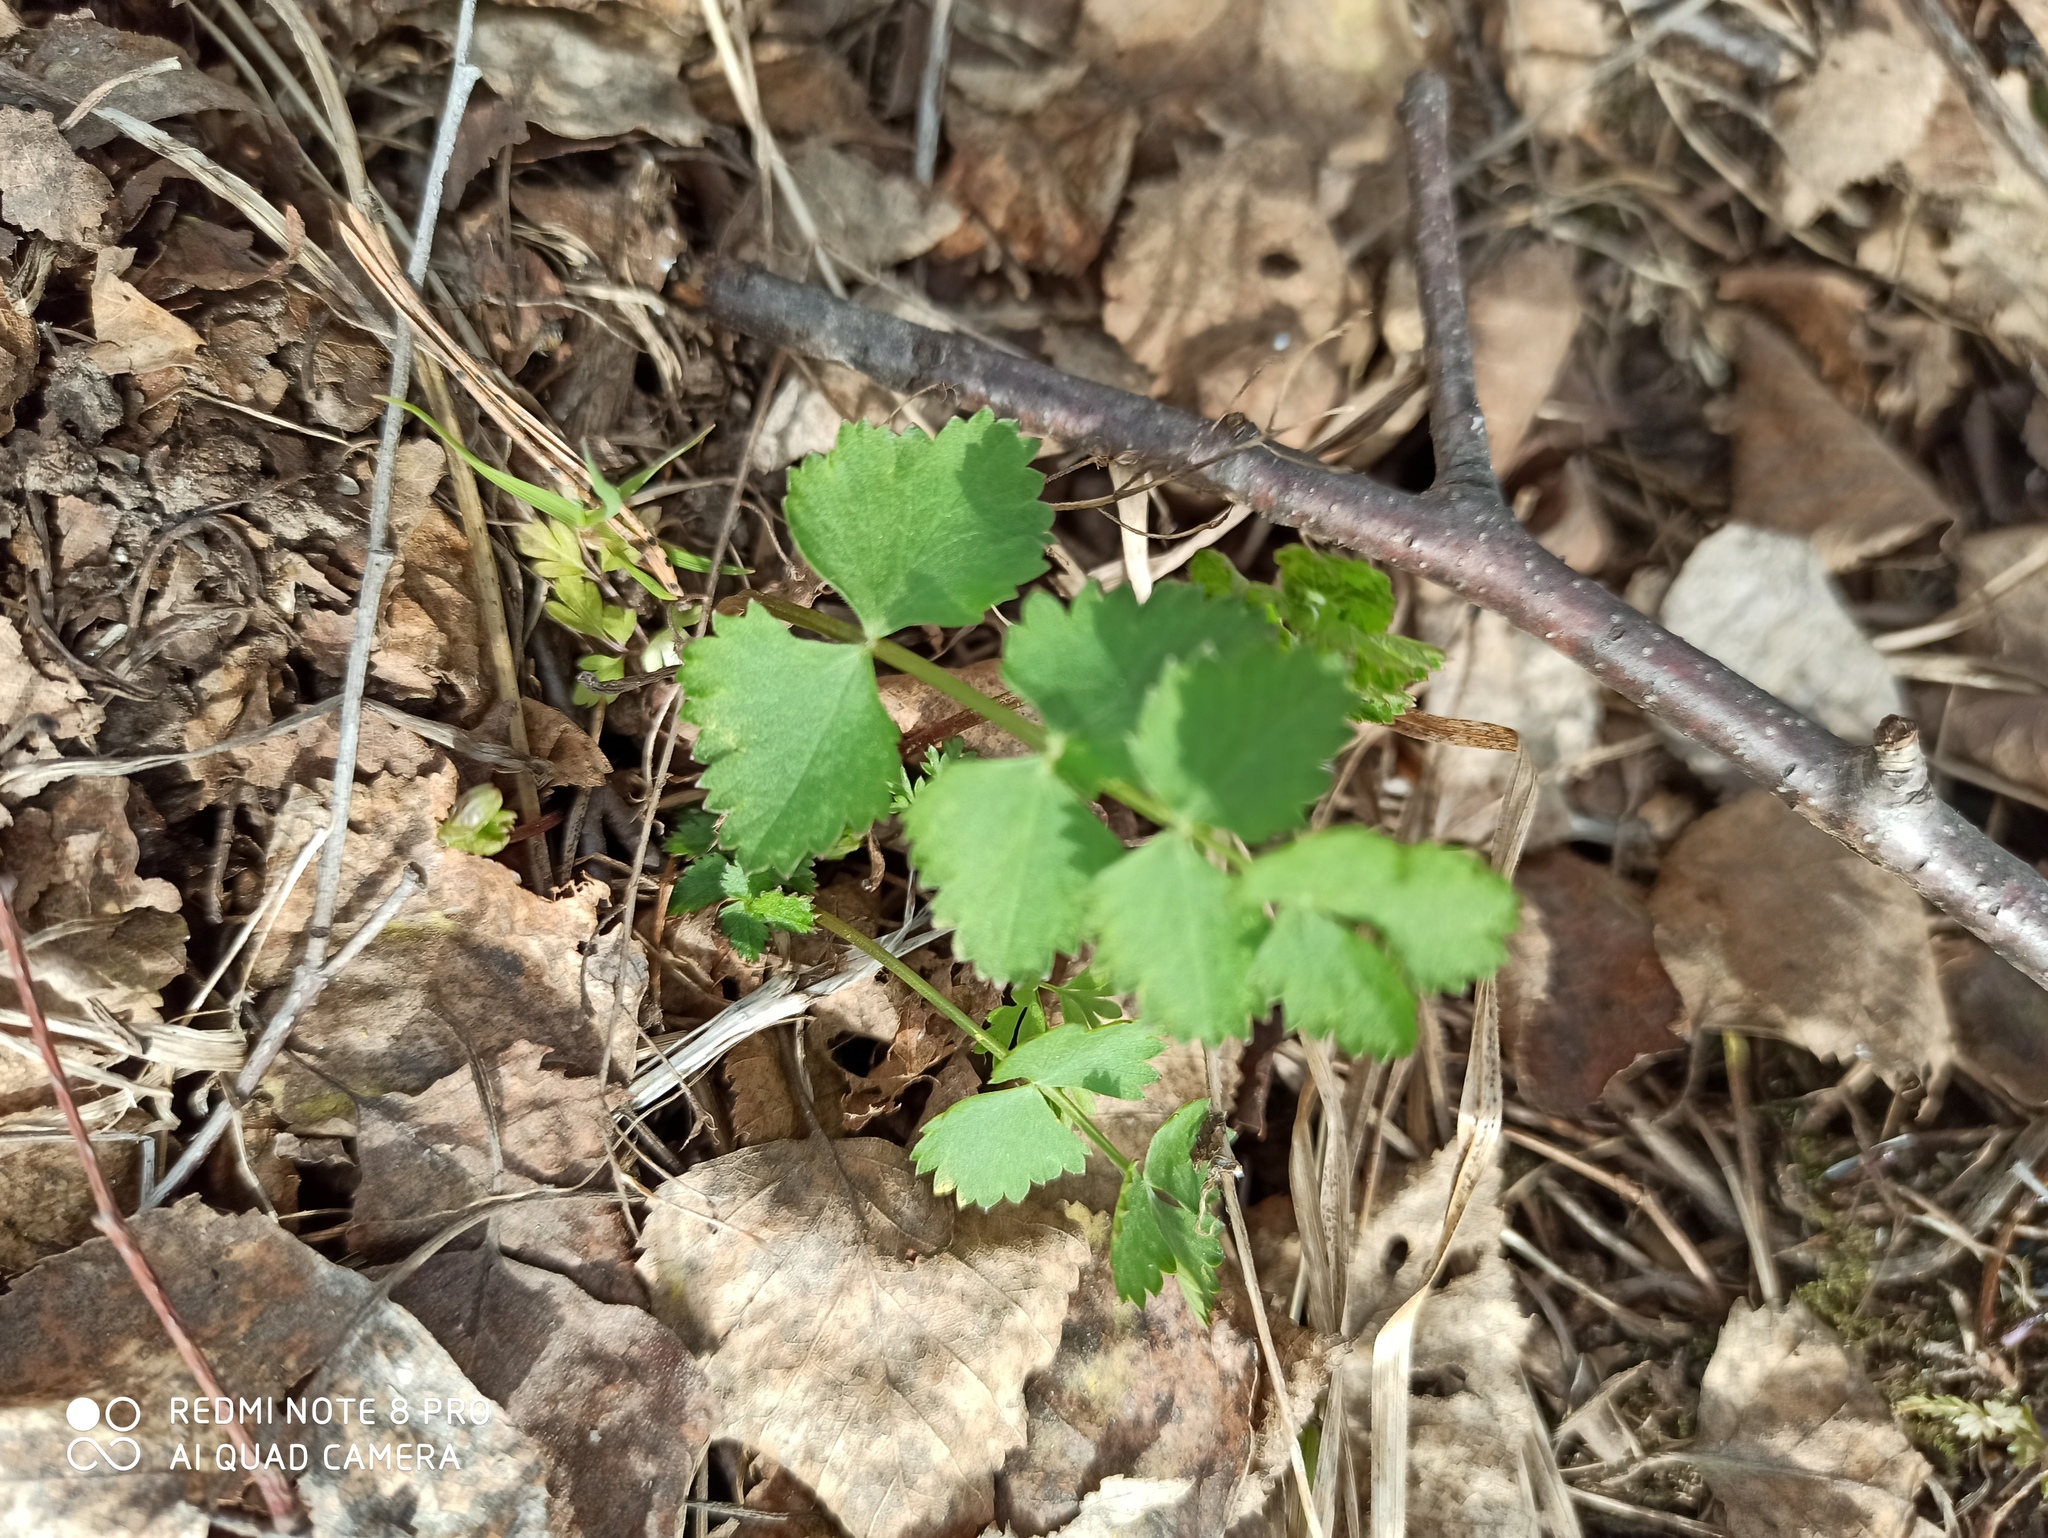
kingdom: Plantae
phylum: Tracheophyta
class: Magnoliopsida
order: Apiales
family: Apiaceae
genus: Pimpinella
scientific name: Pimpinella saxifraga
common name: Burnet-saxifrage
